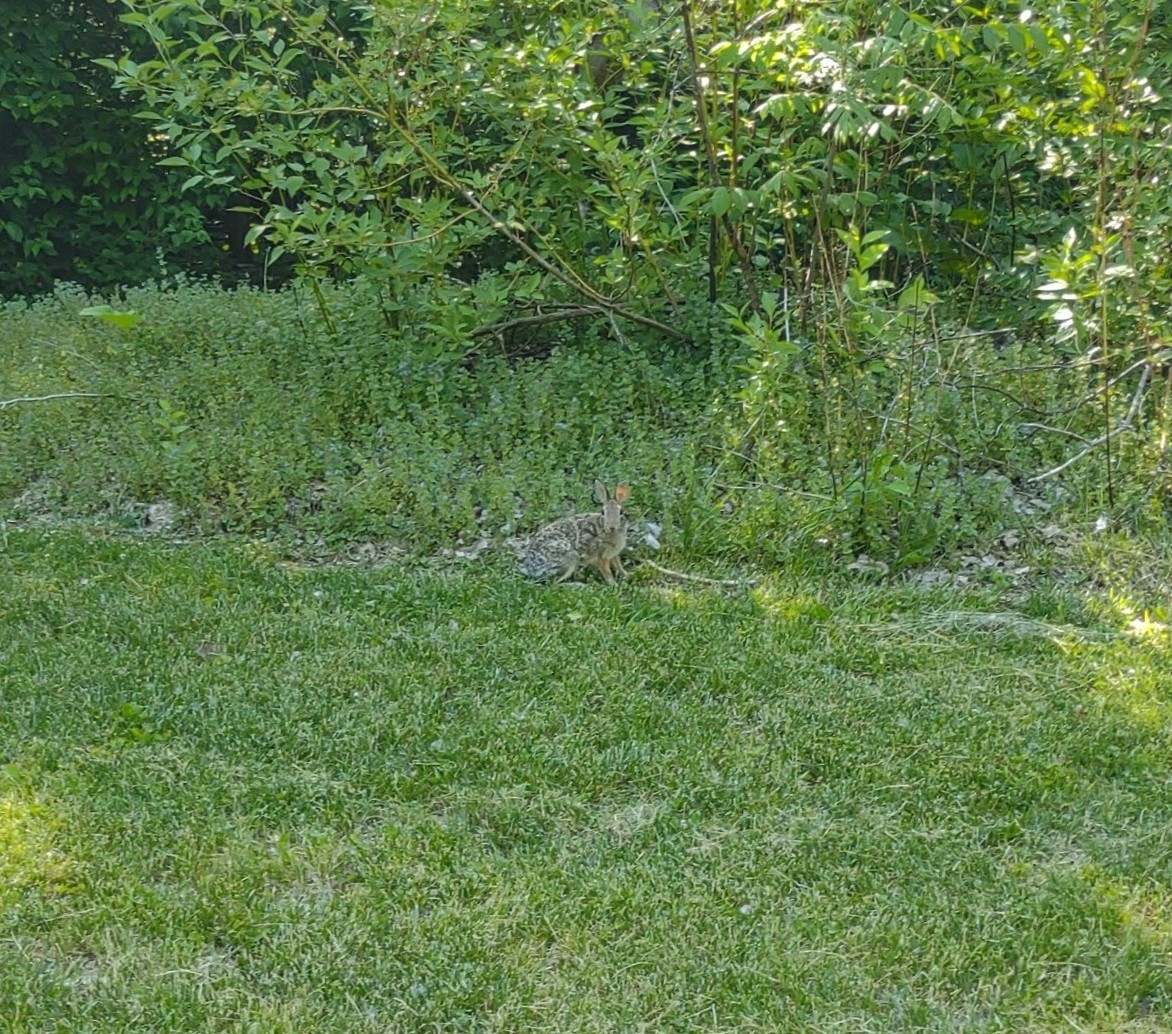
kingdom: Animalia
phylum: Chordata
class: Mammalia
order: Lagomorpha
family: Leporidae
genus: Sylvilagus
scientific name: Sylvilagus floridanus
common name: Eastern cottontail
